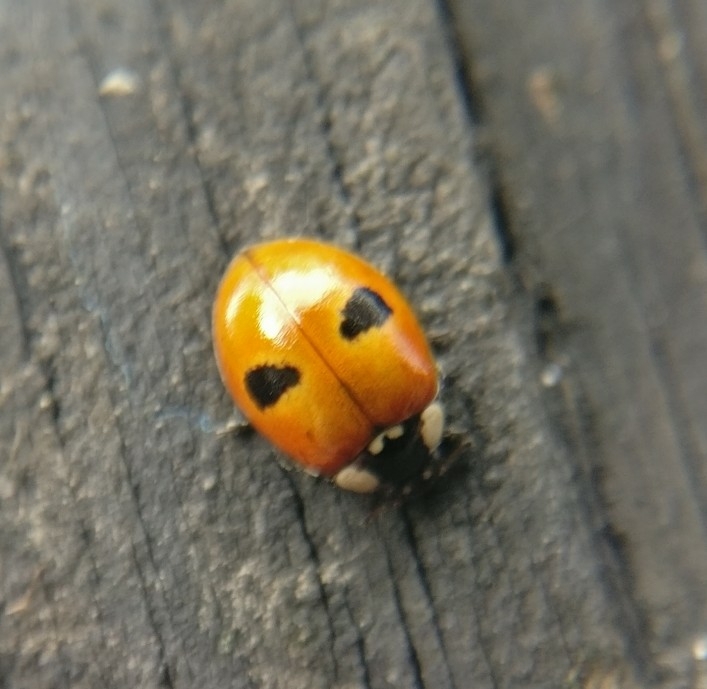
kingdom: Animalia
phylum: Arthropoda
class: Insecta
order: Coleoptera
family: Coccinellidae
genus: Adalia
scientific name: Adalia bipunctata
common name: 2-spot ladybird
